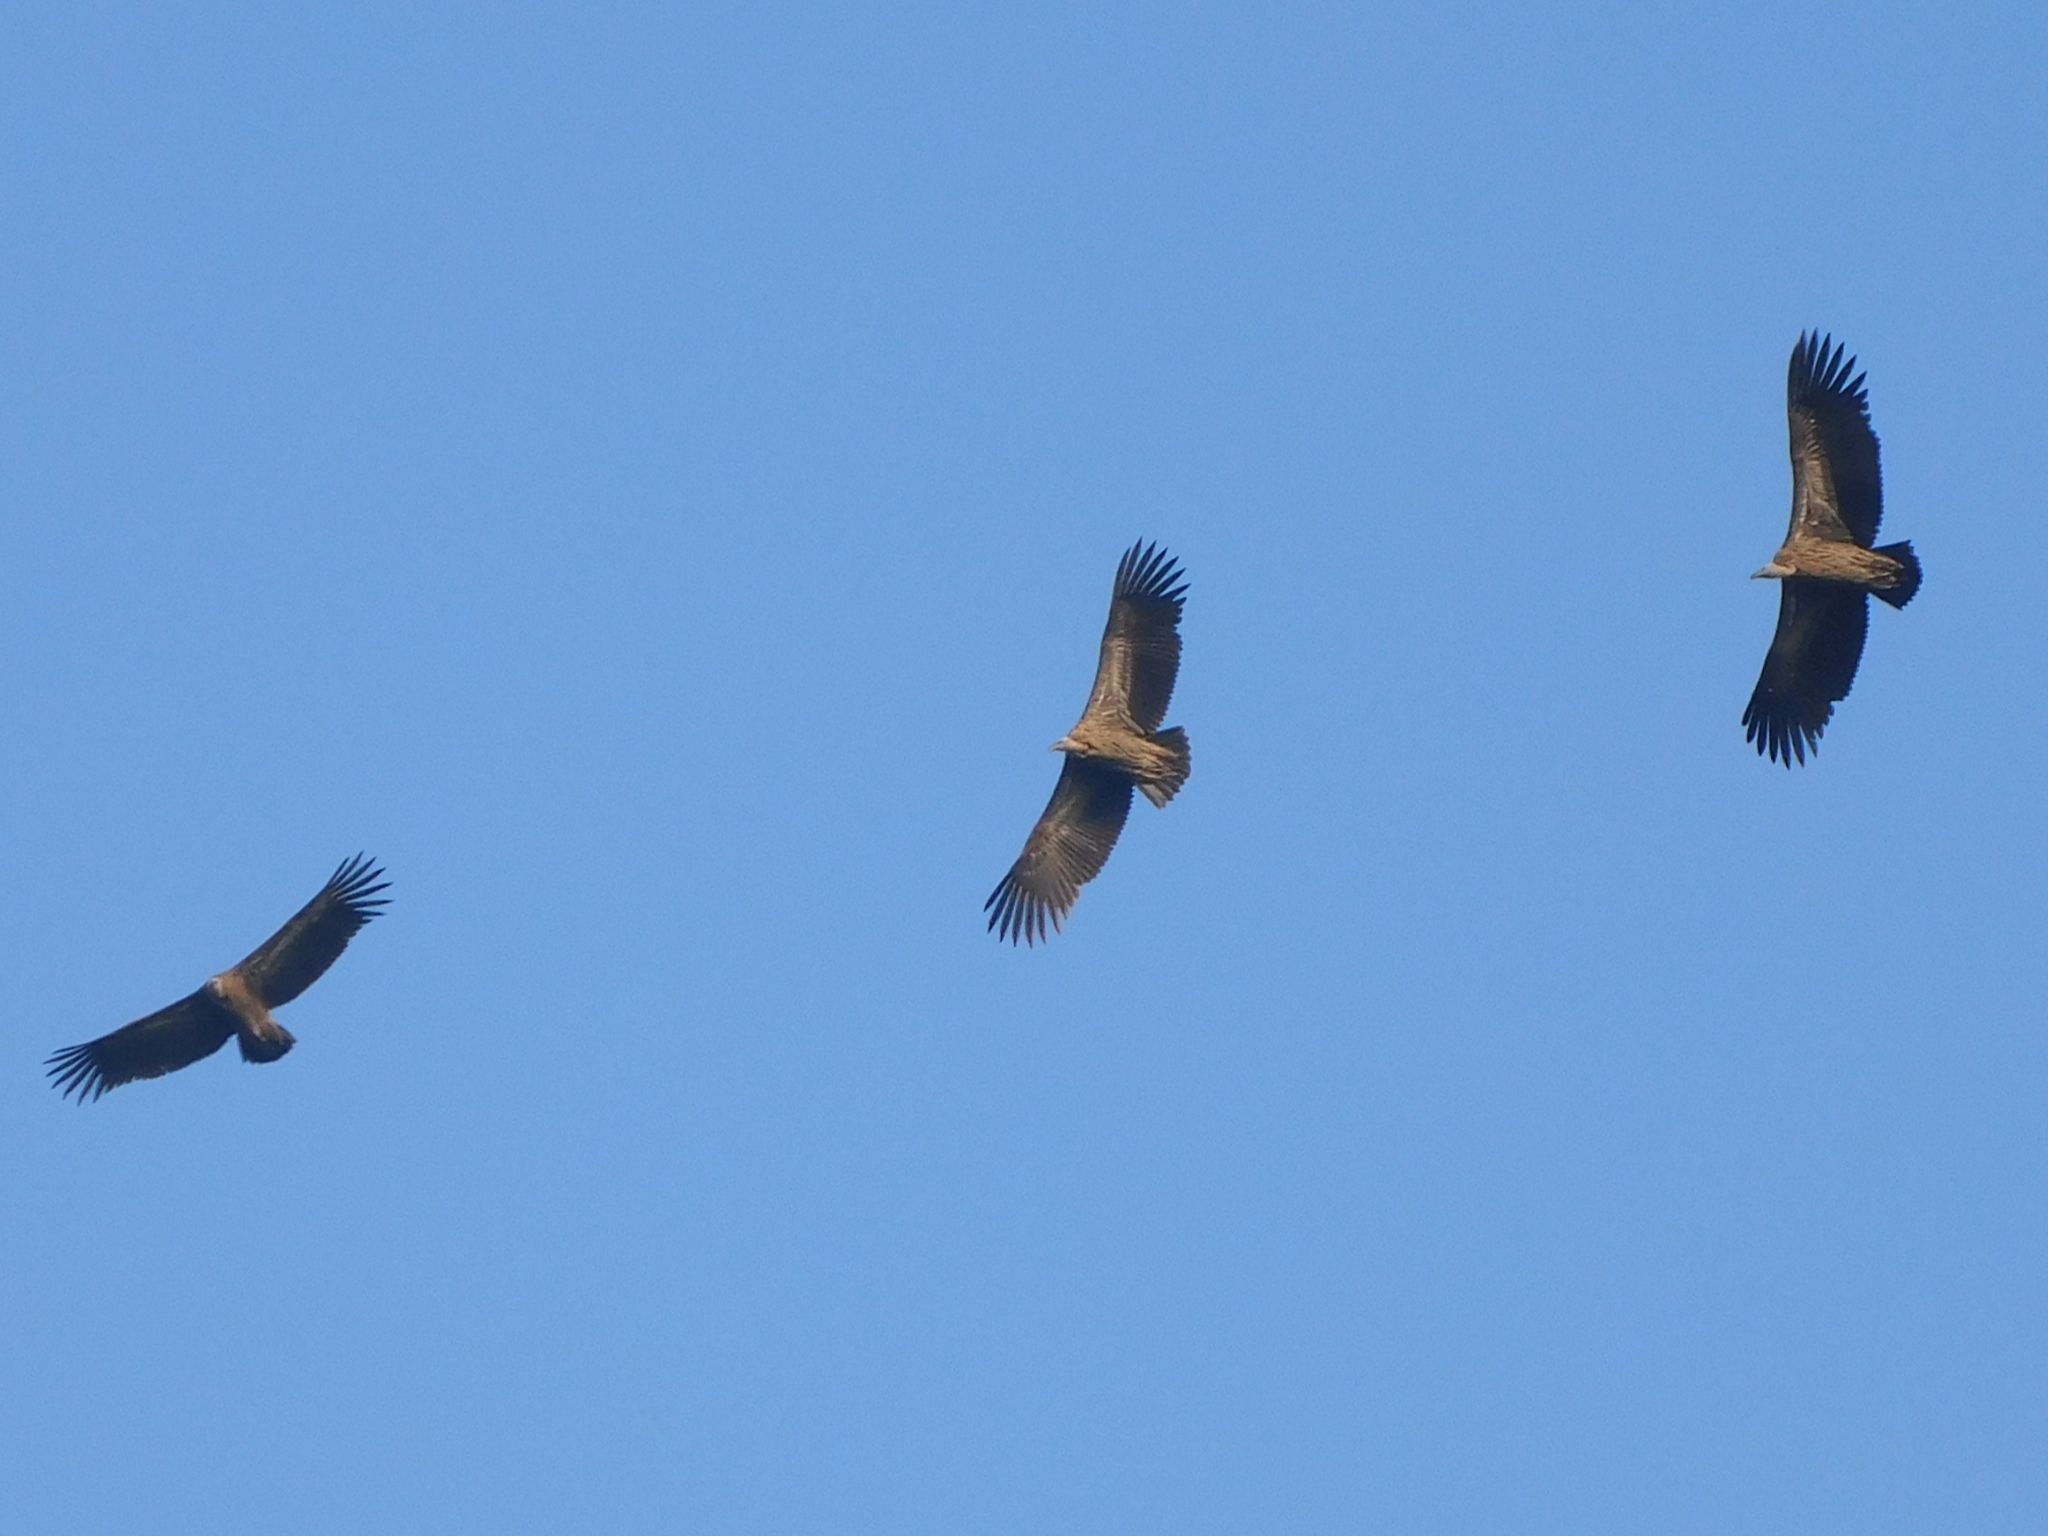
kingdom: Animalia
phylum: Chordata
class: Aves
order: Accipitriformes
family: Accipitridae
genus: Gyps
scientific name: Gyps himalayensis
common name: Himalayan griffon
